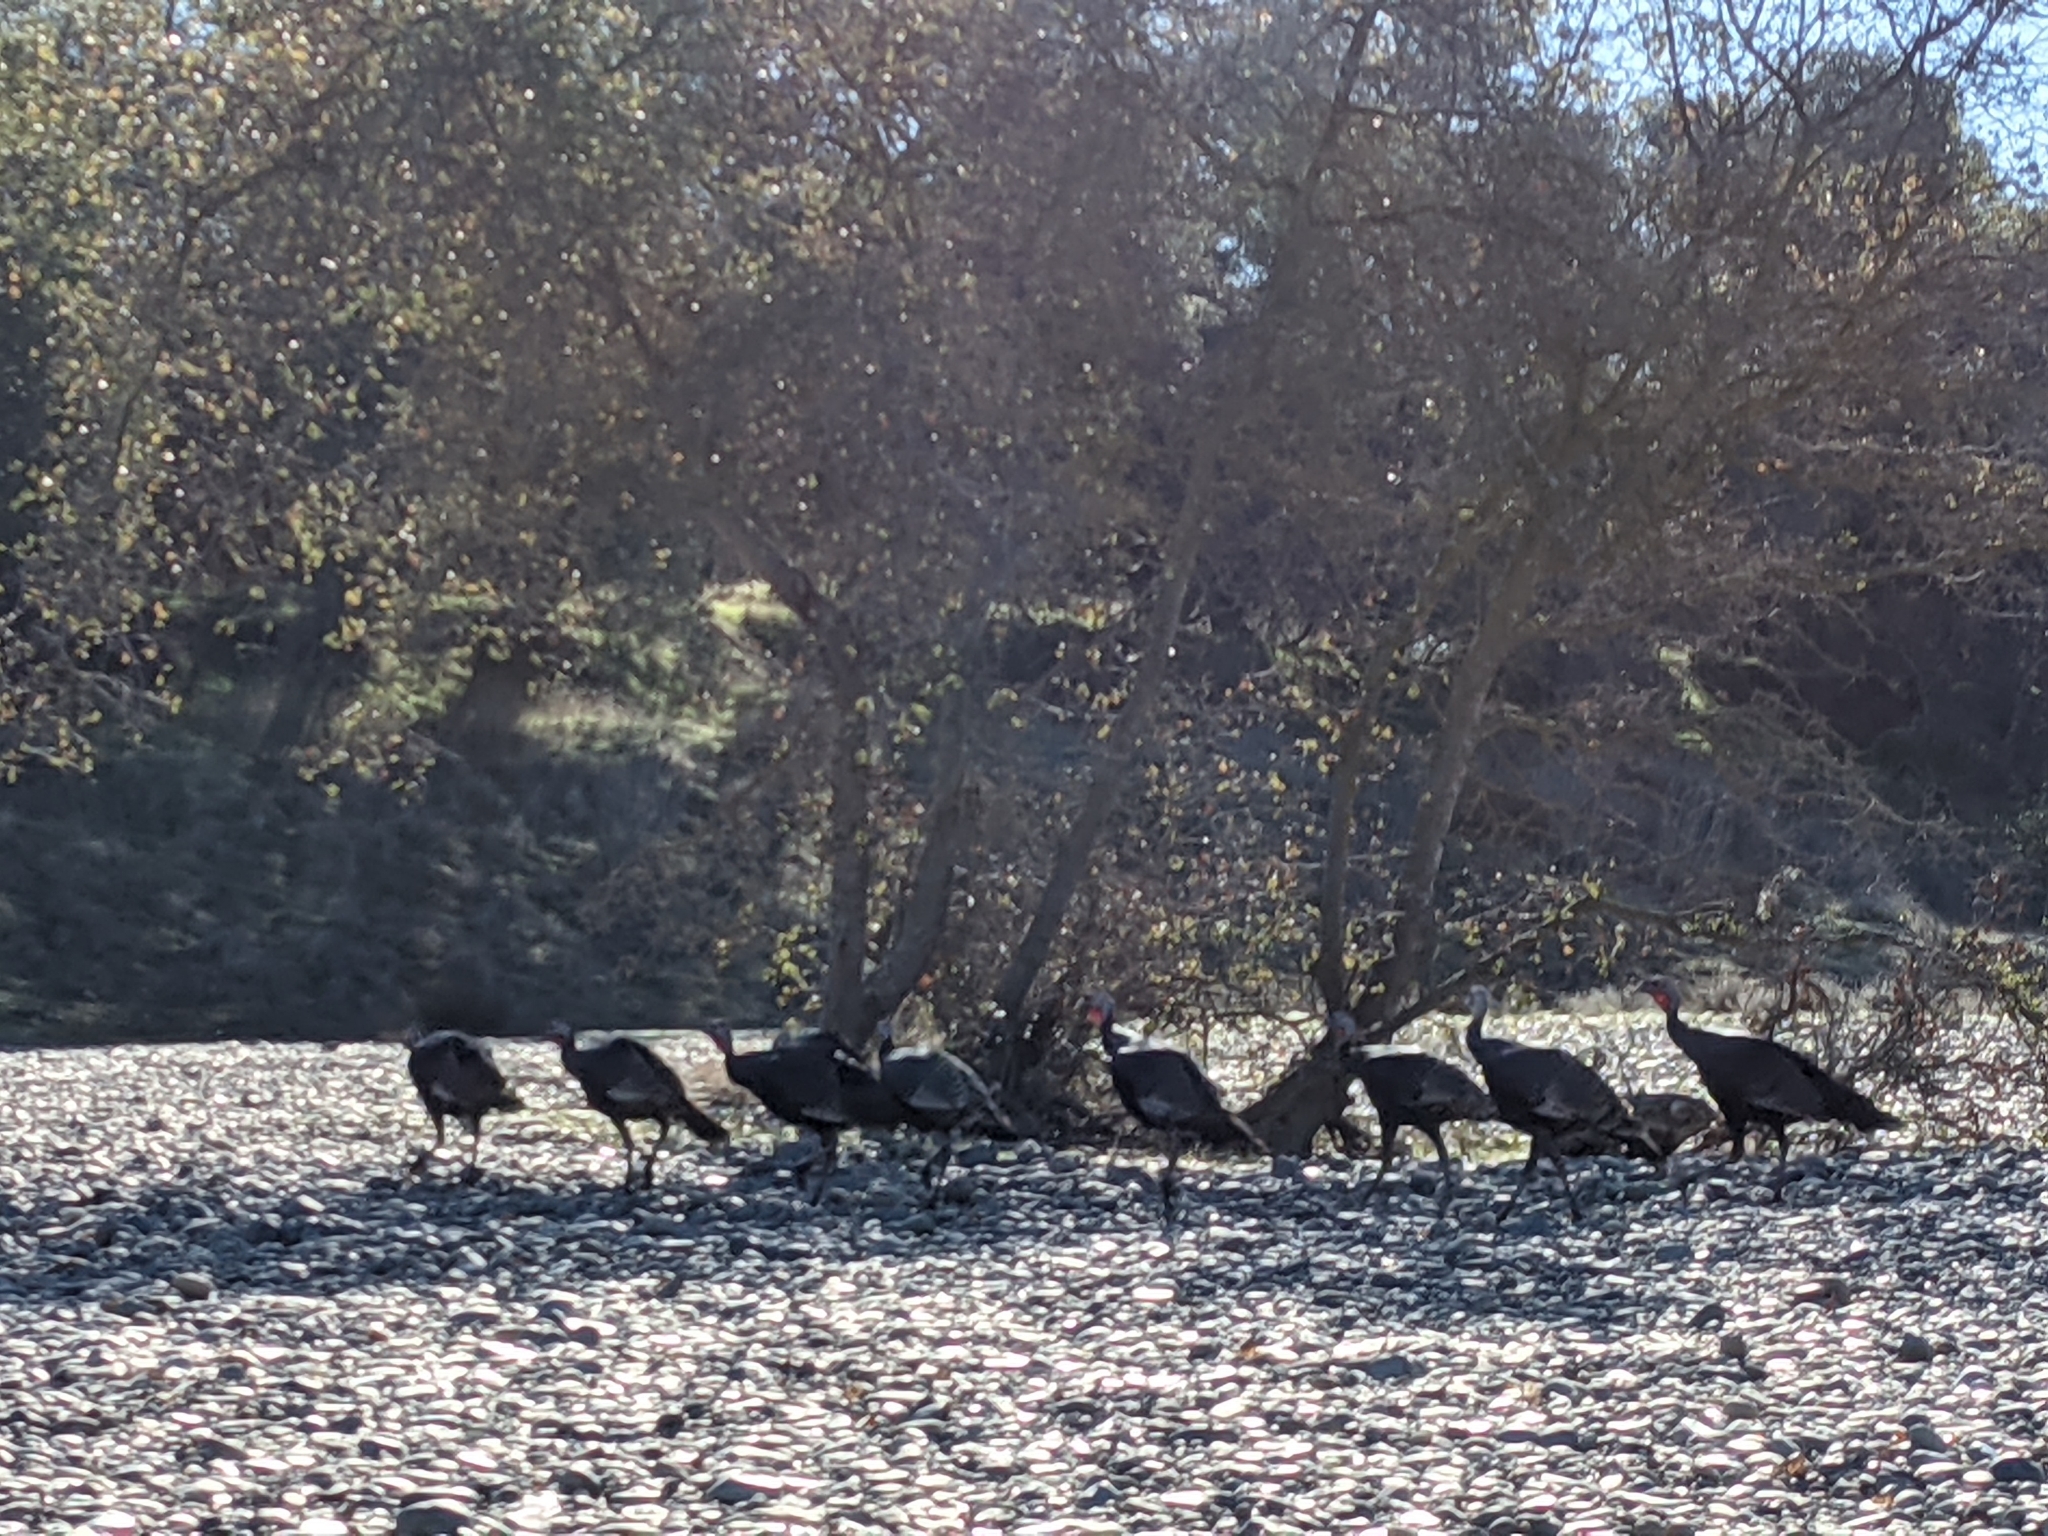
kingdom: Animalia
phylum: Chordata
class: Aves
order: Galliformes
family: Phasianidae
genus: Meleagris
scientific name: Meleagris gallopavo
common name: Wild turkey
